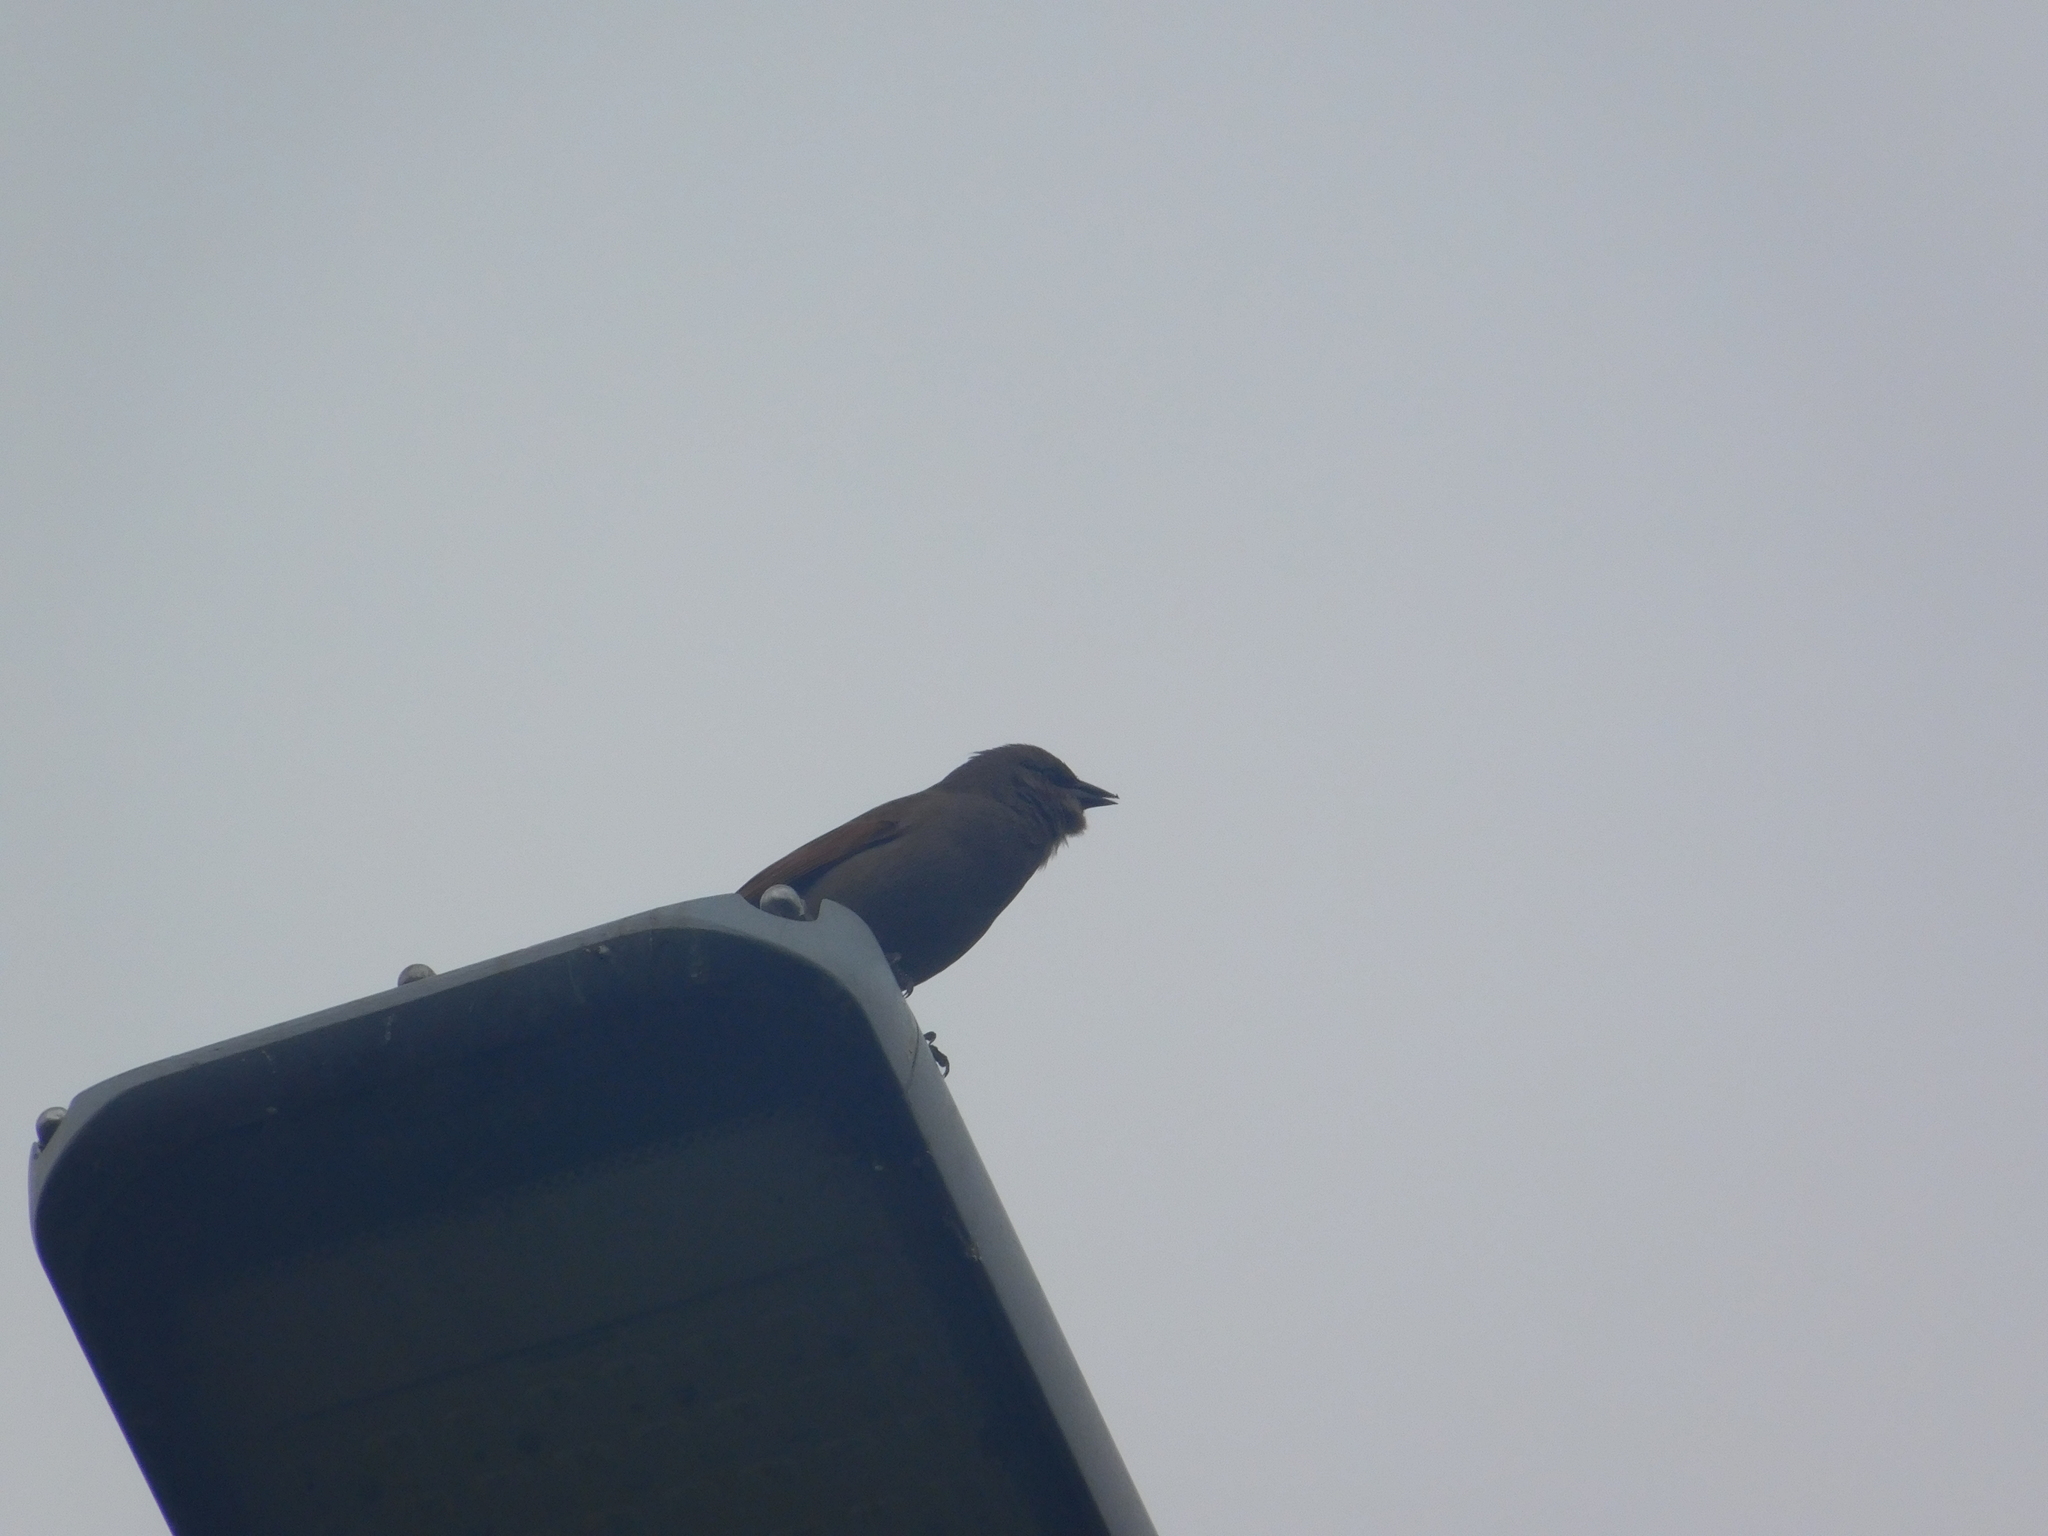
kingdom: Animalia
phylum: Chordata
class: Aves
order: Passeriformes
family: Icteridae
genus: Agelaioides
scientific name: Agelaioides badius
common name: Baywing
